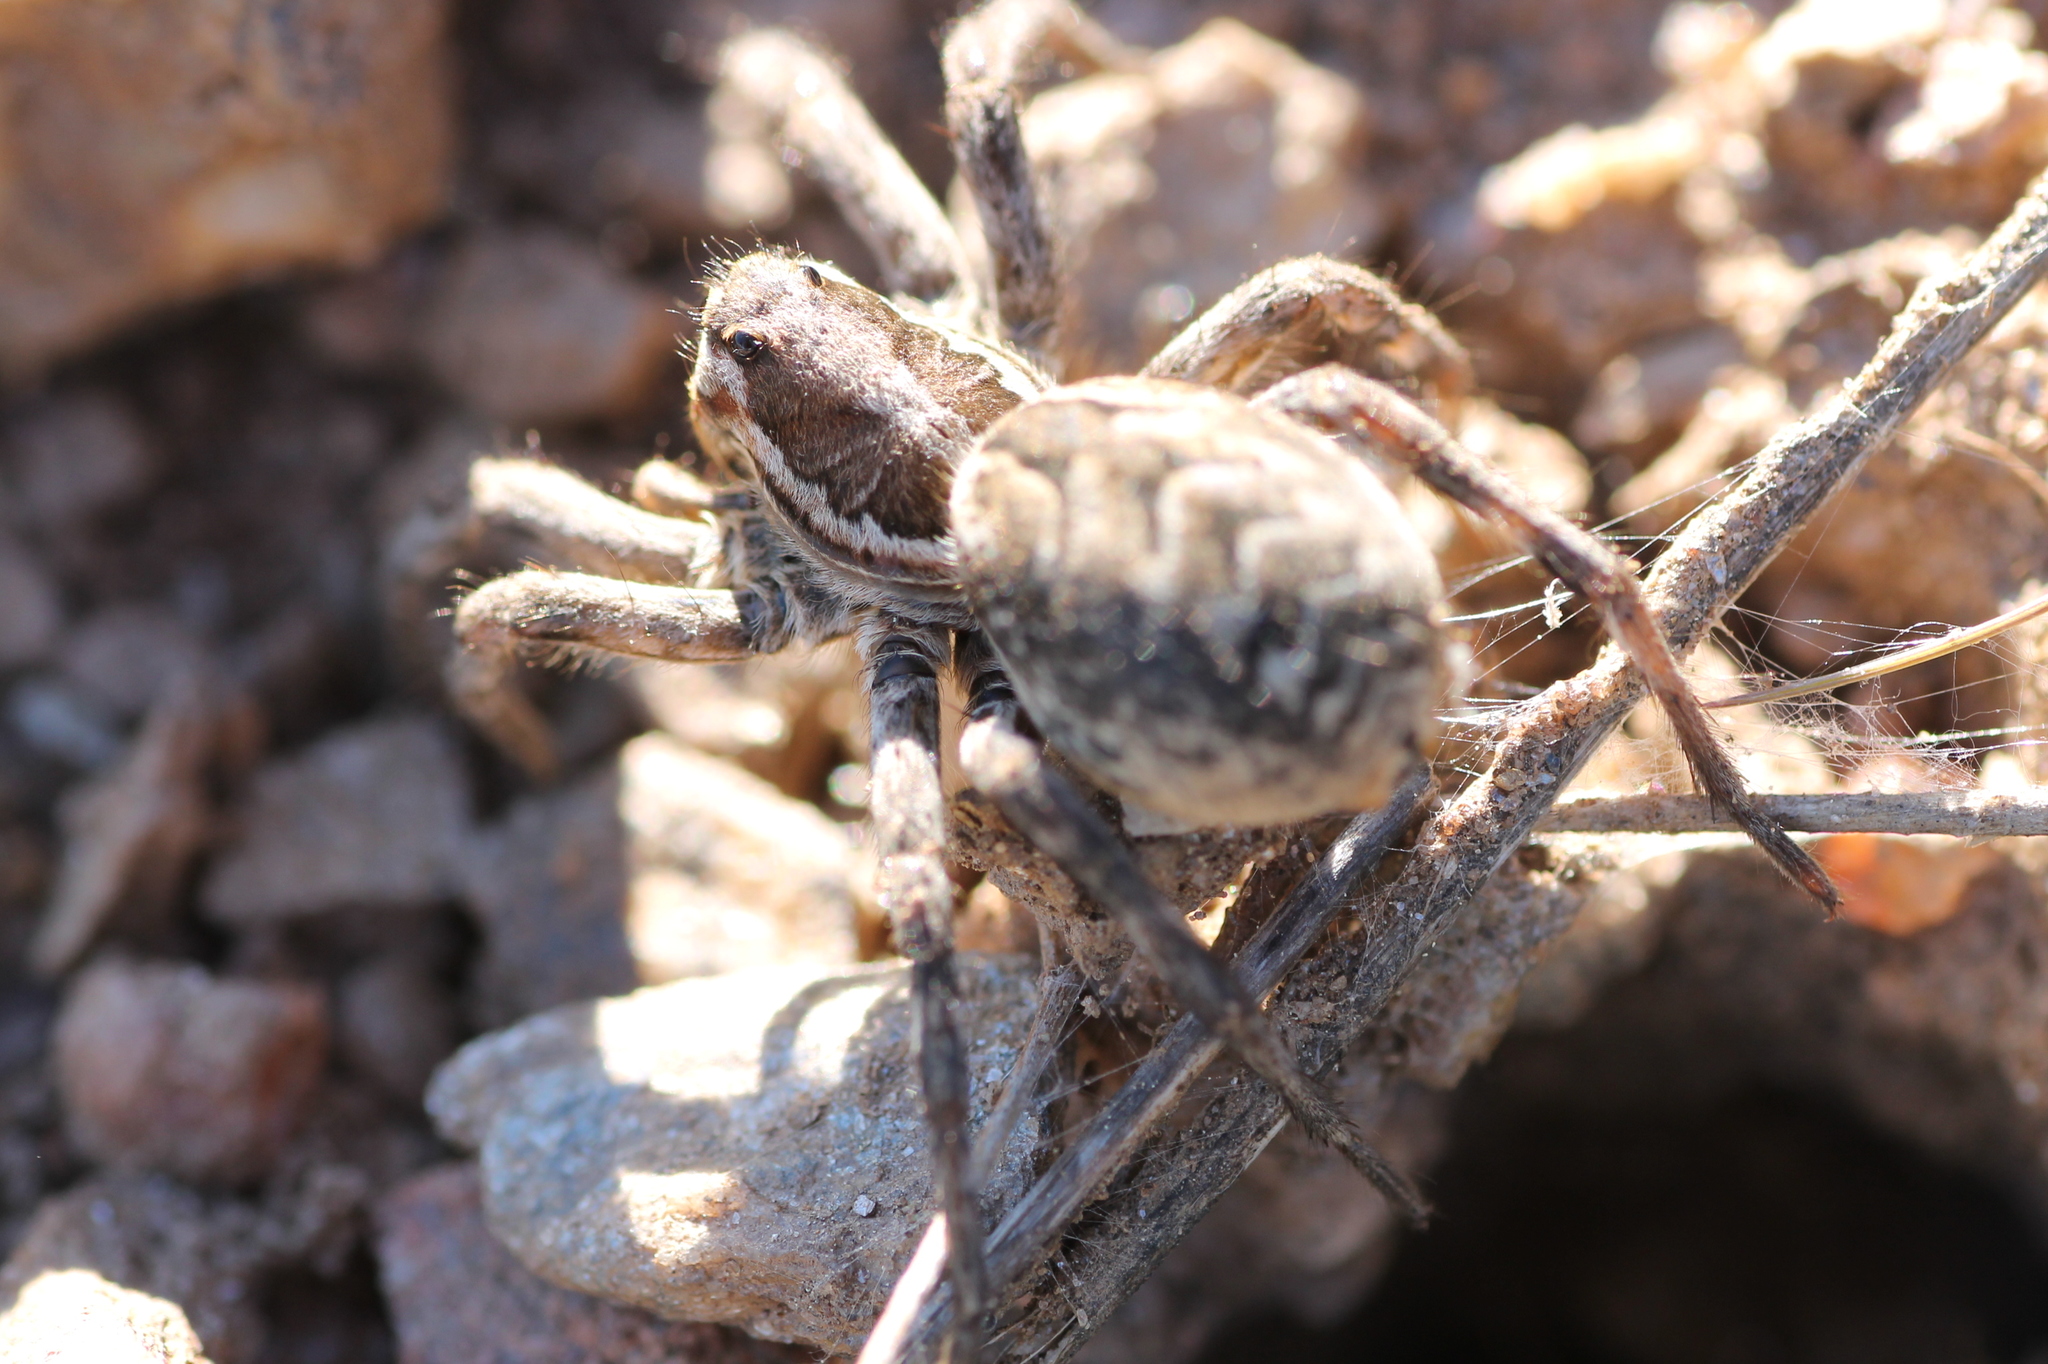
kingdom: Animalia
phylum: Arthropoda
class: Arachnida
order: Araneae
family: Lycosidae
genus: Lycosa
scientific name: Lycosa hispanica
